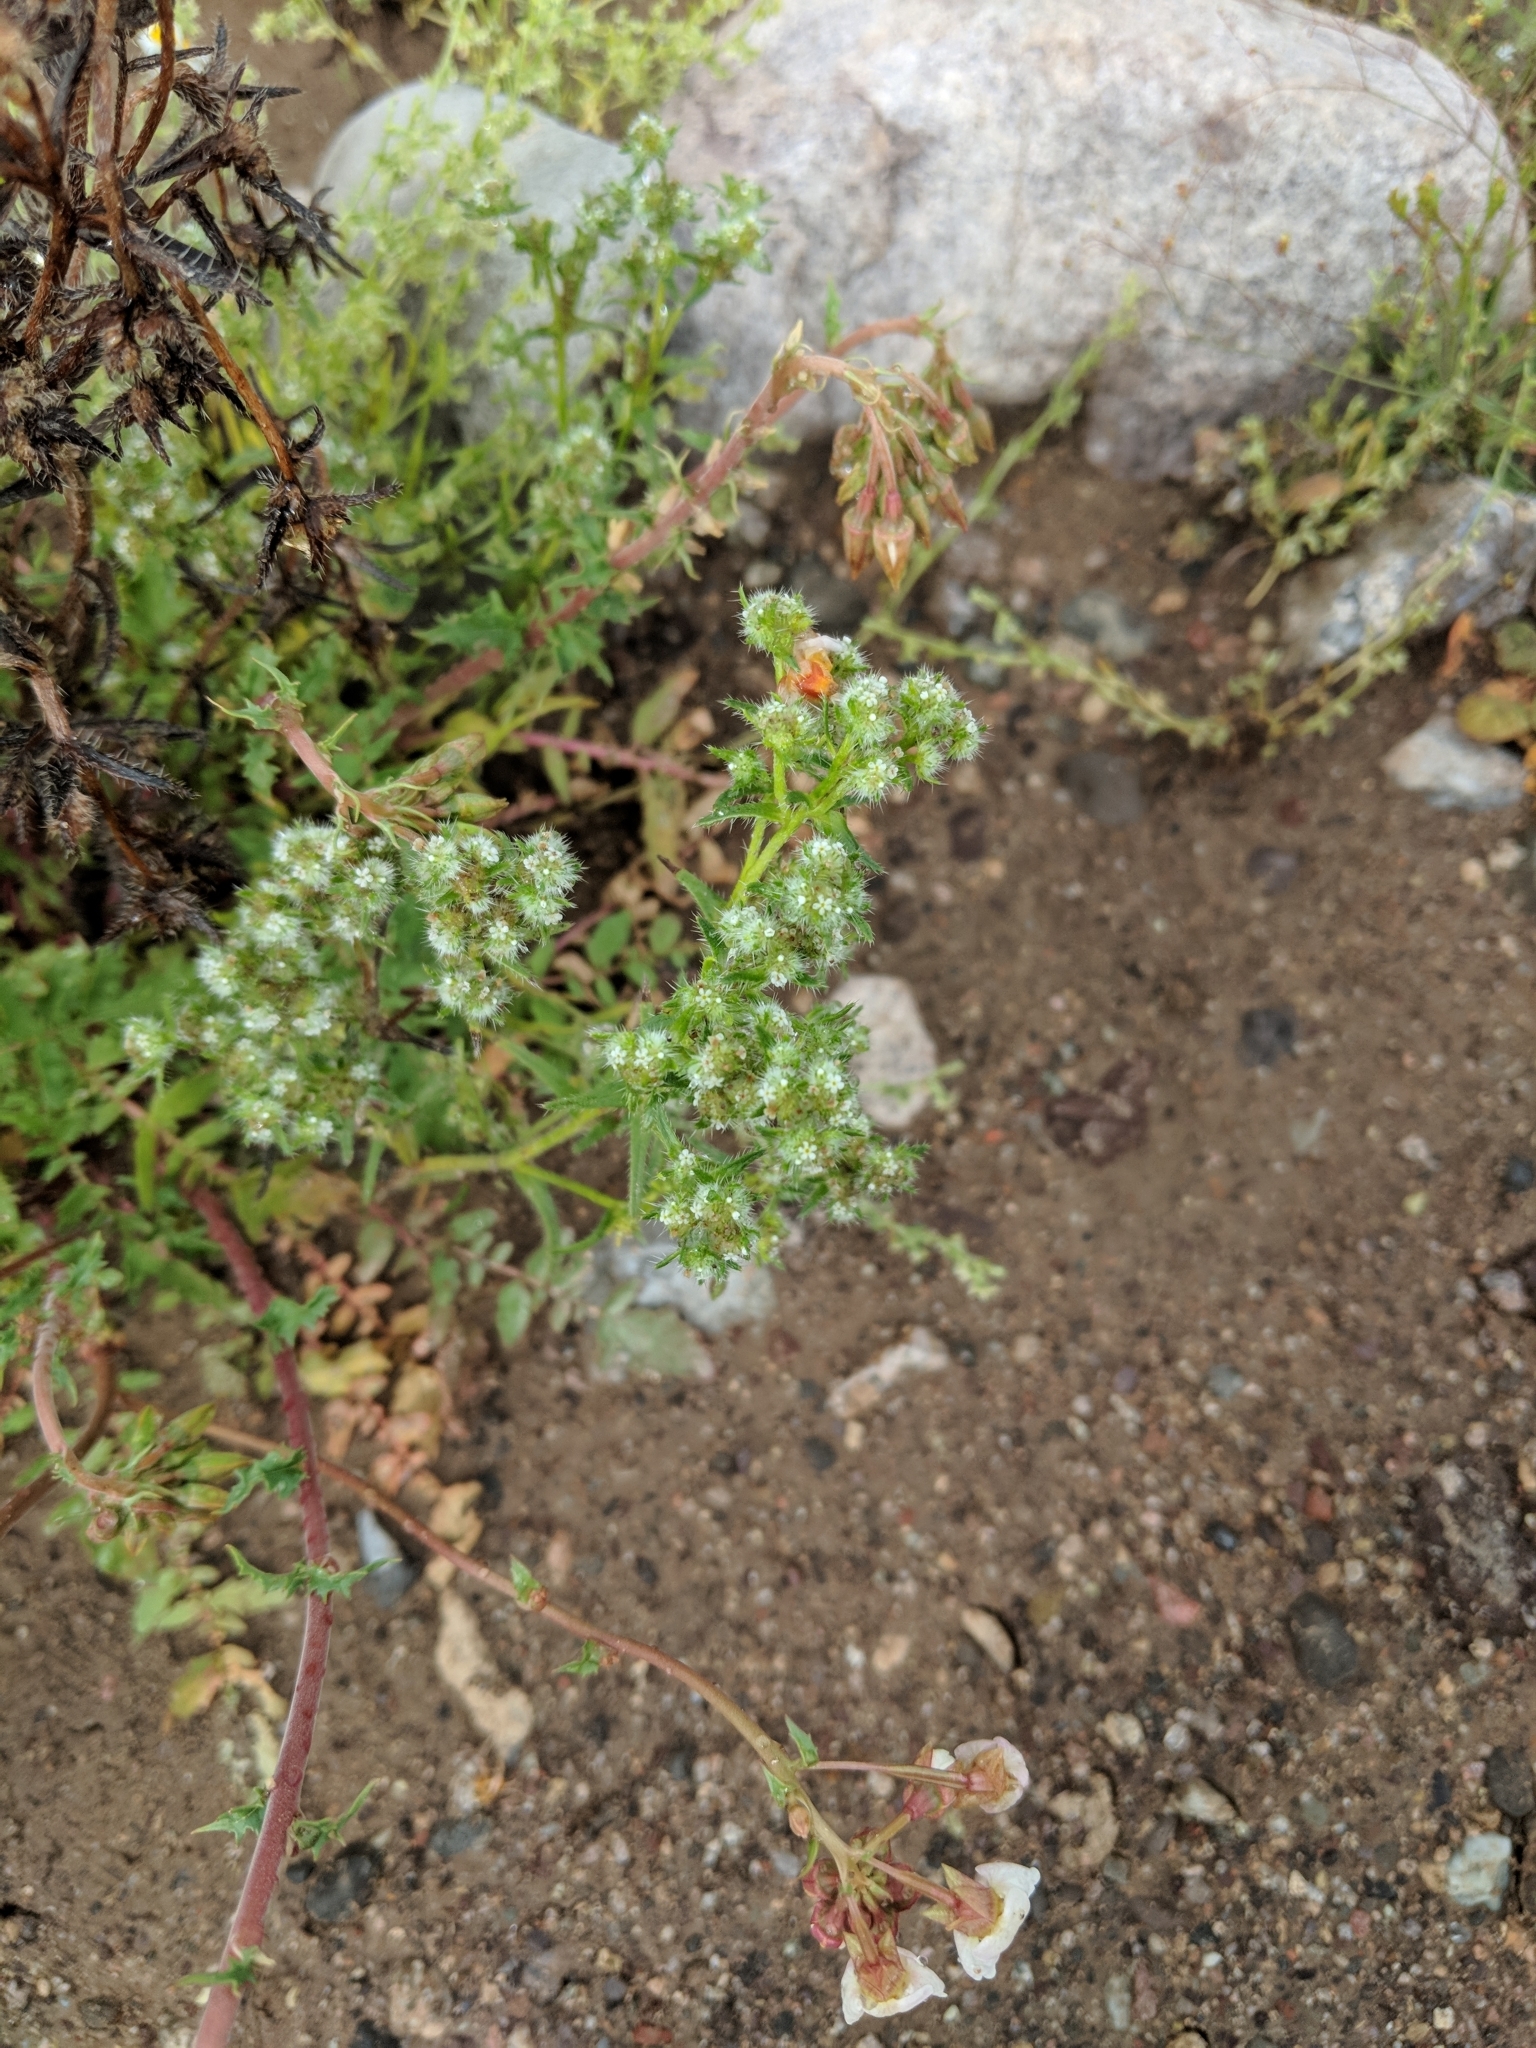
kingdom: Plantae
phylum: Tracheophyta
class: Magnoliopsida
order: Boraginales
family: Boraginaceae
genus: Cryptantha
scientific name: Cryptantha maritima
